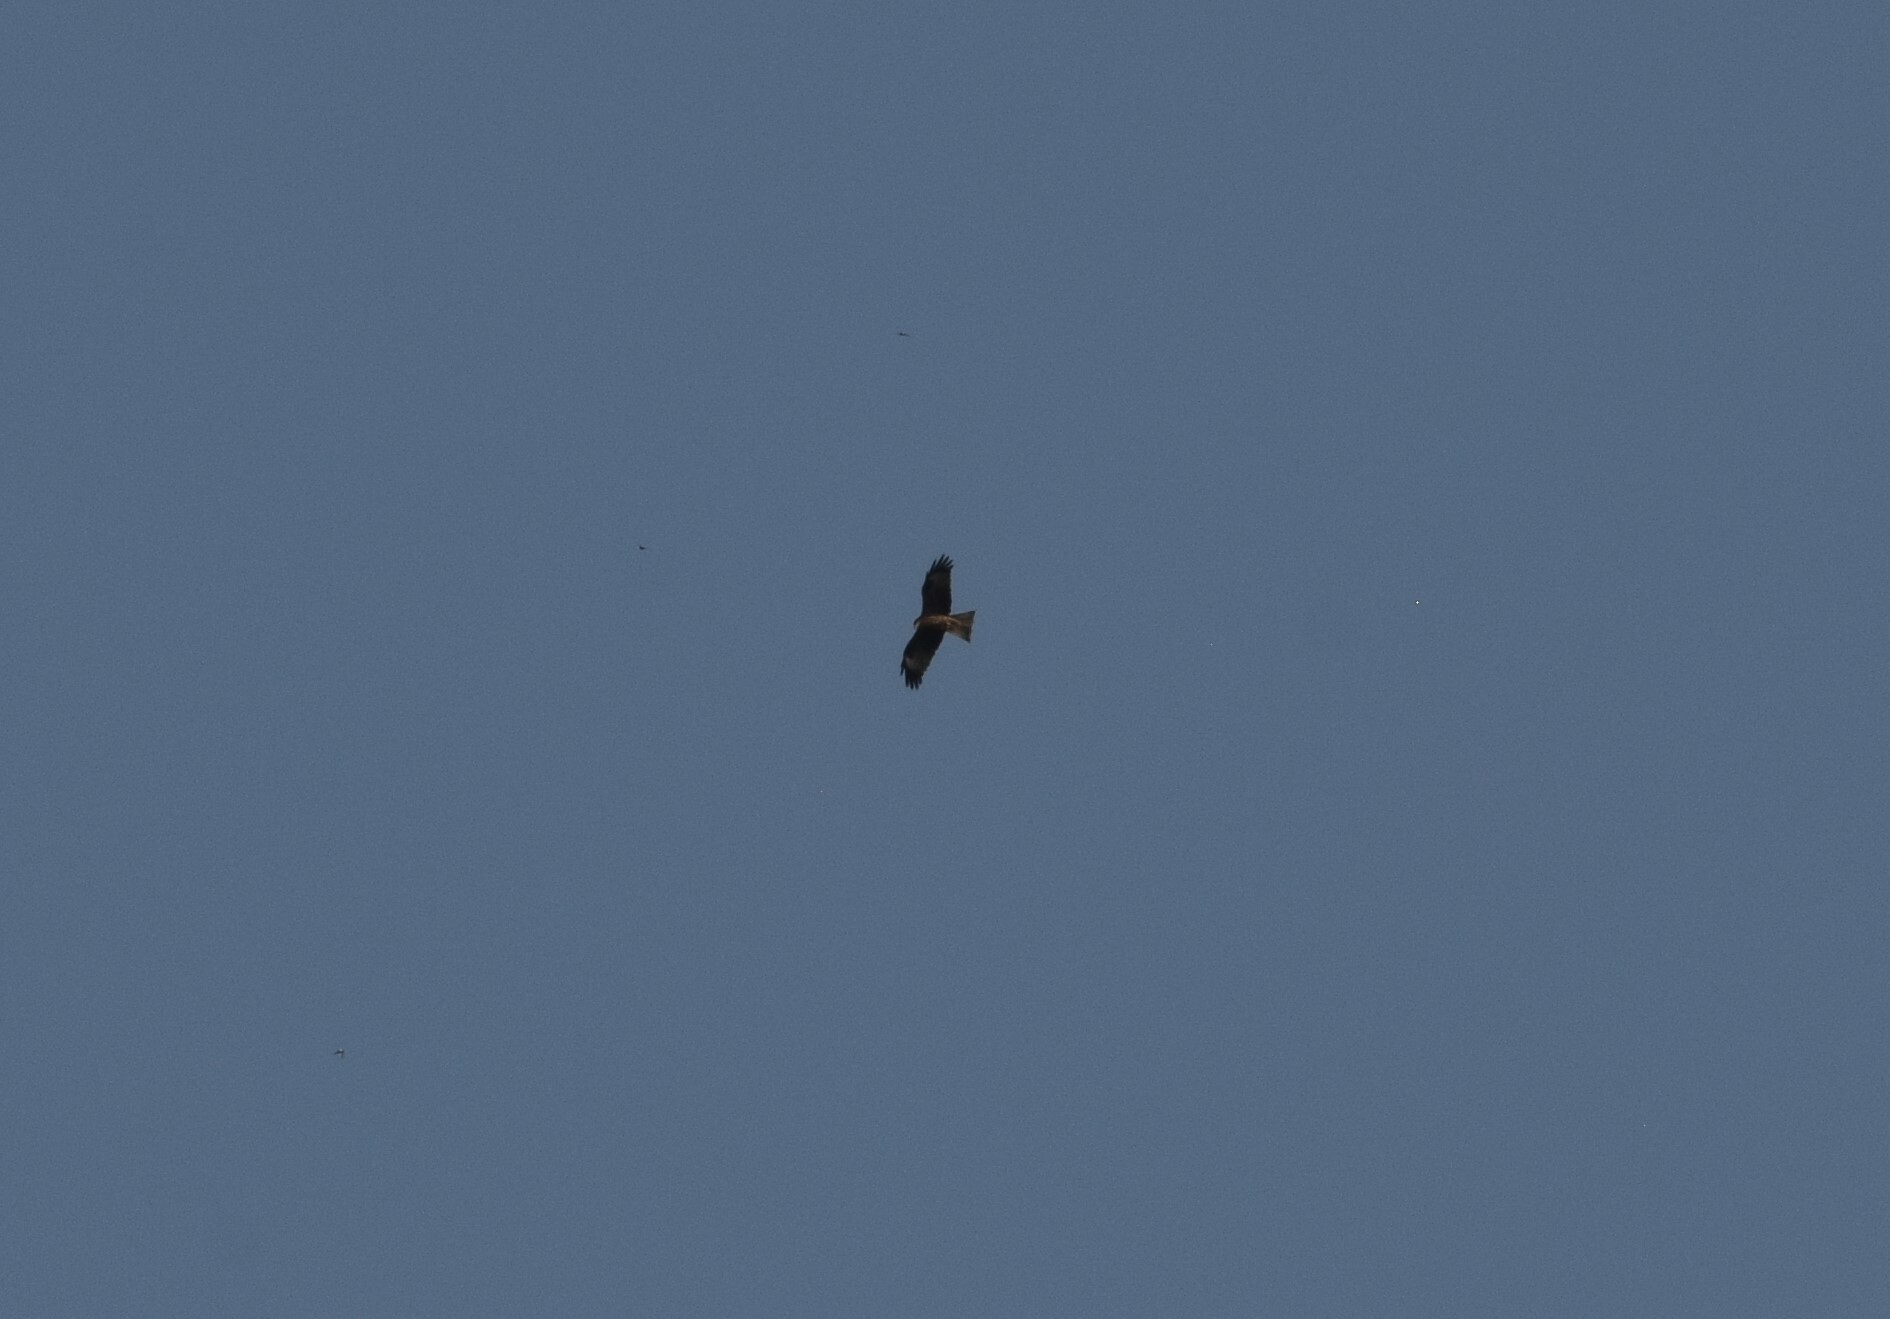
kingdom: Animalia
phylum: Chordata
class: Aves
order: Accipitriformes
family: Accipitridae
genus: Milvus
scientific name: Milvus migrans
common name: Black kite
